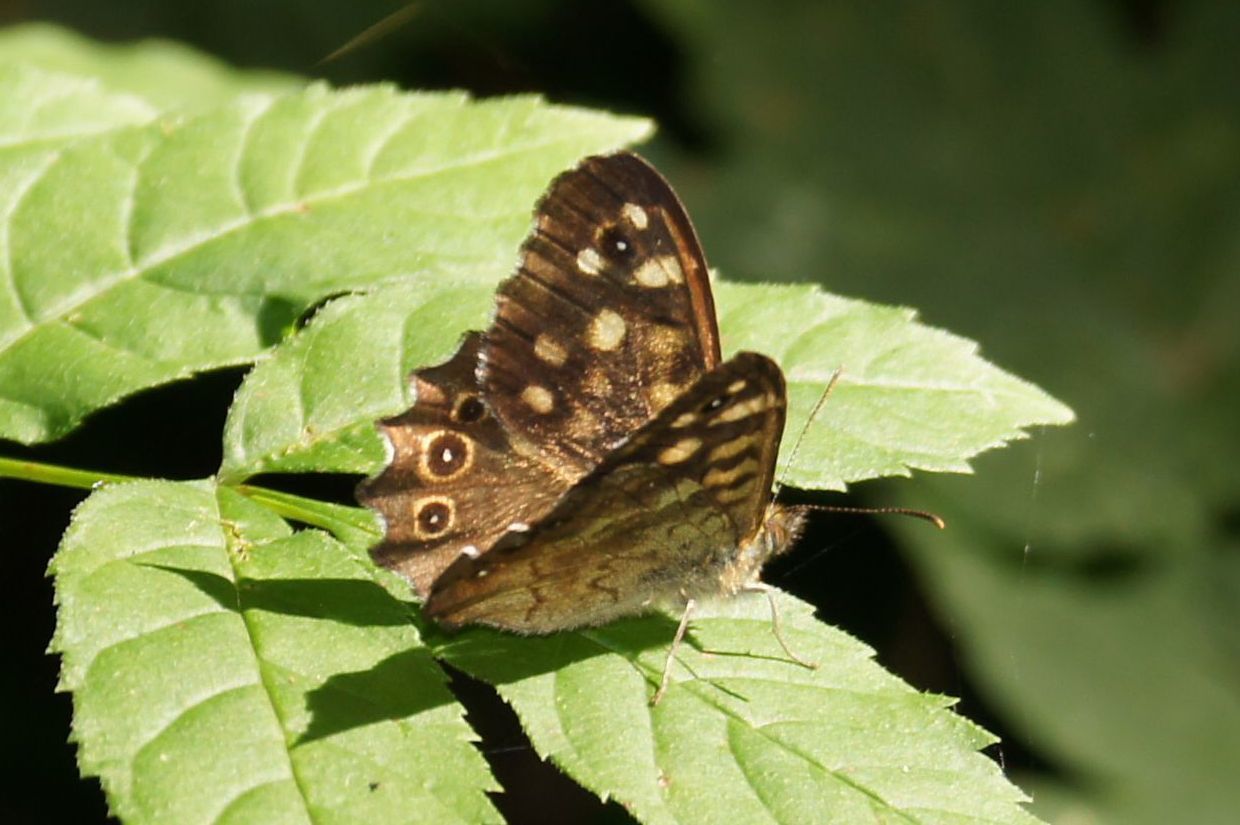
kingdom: Animalia
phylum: Arthropoda
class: Insecta
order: Lepidoptera
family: Nymphalidae
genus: Pararge
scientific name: Pararge aegeria
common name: Speckled wood
